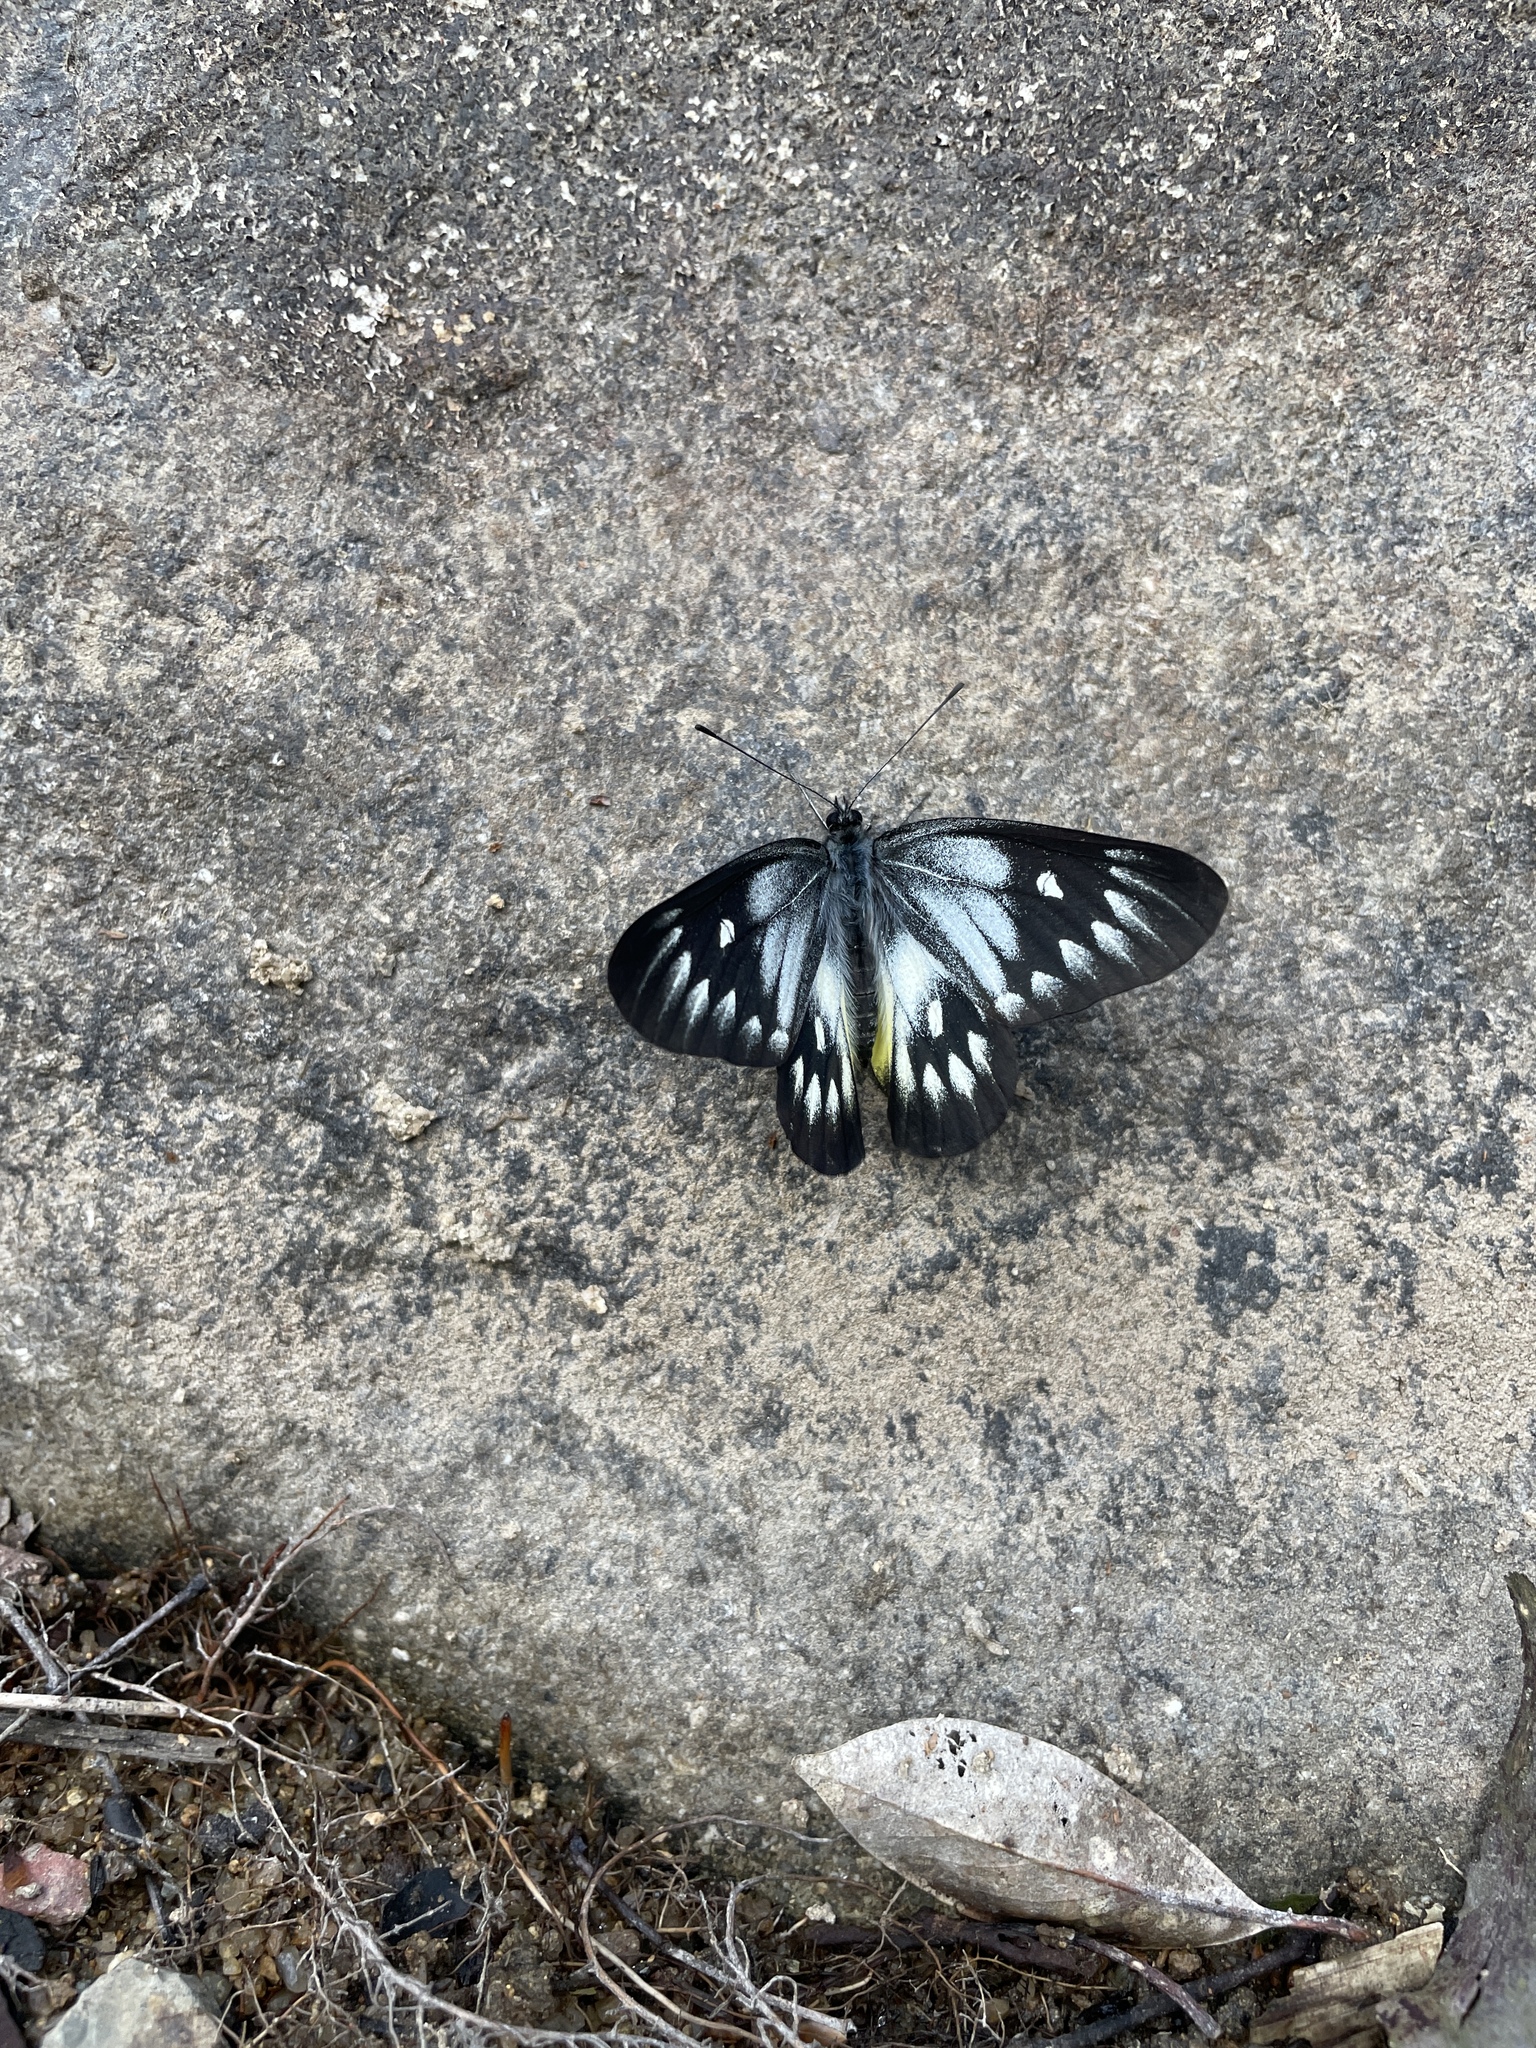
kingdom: Animalia
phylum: Arthropoda
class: Insecta
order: Lepidoptera
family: Pieridae
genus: Delias
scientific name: Delias pasithoe
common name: Red-base jezebel
